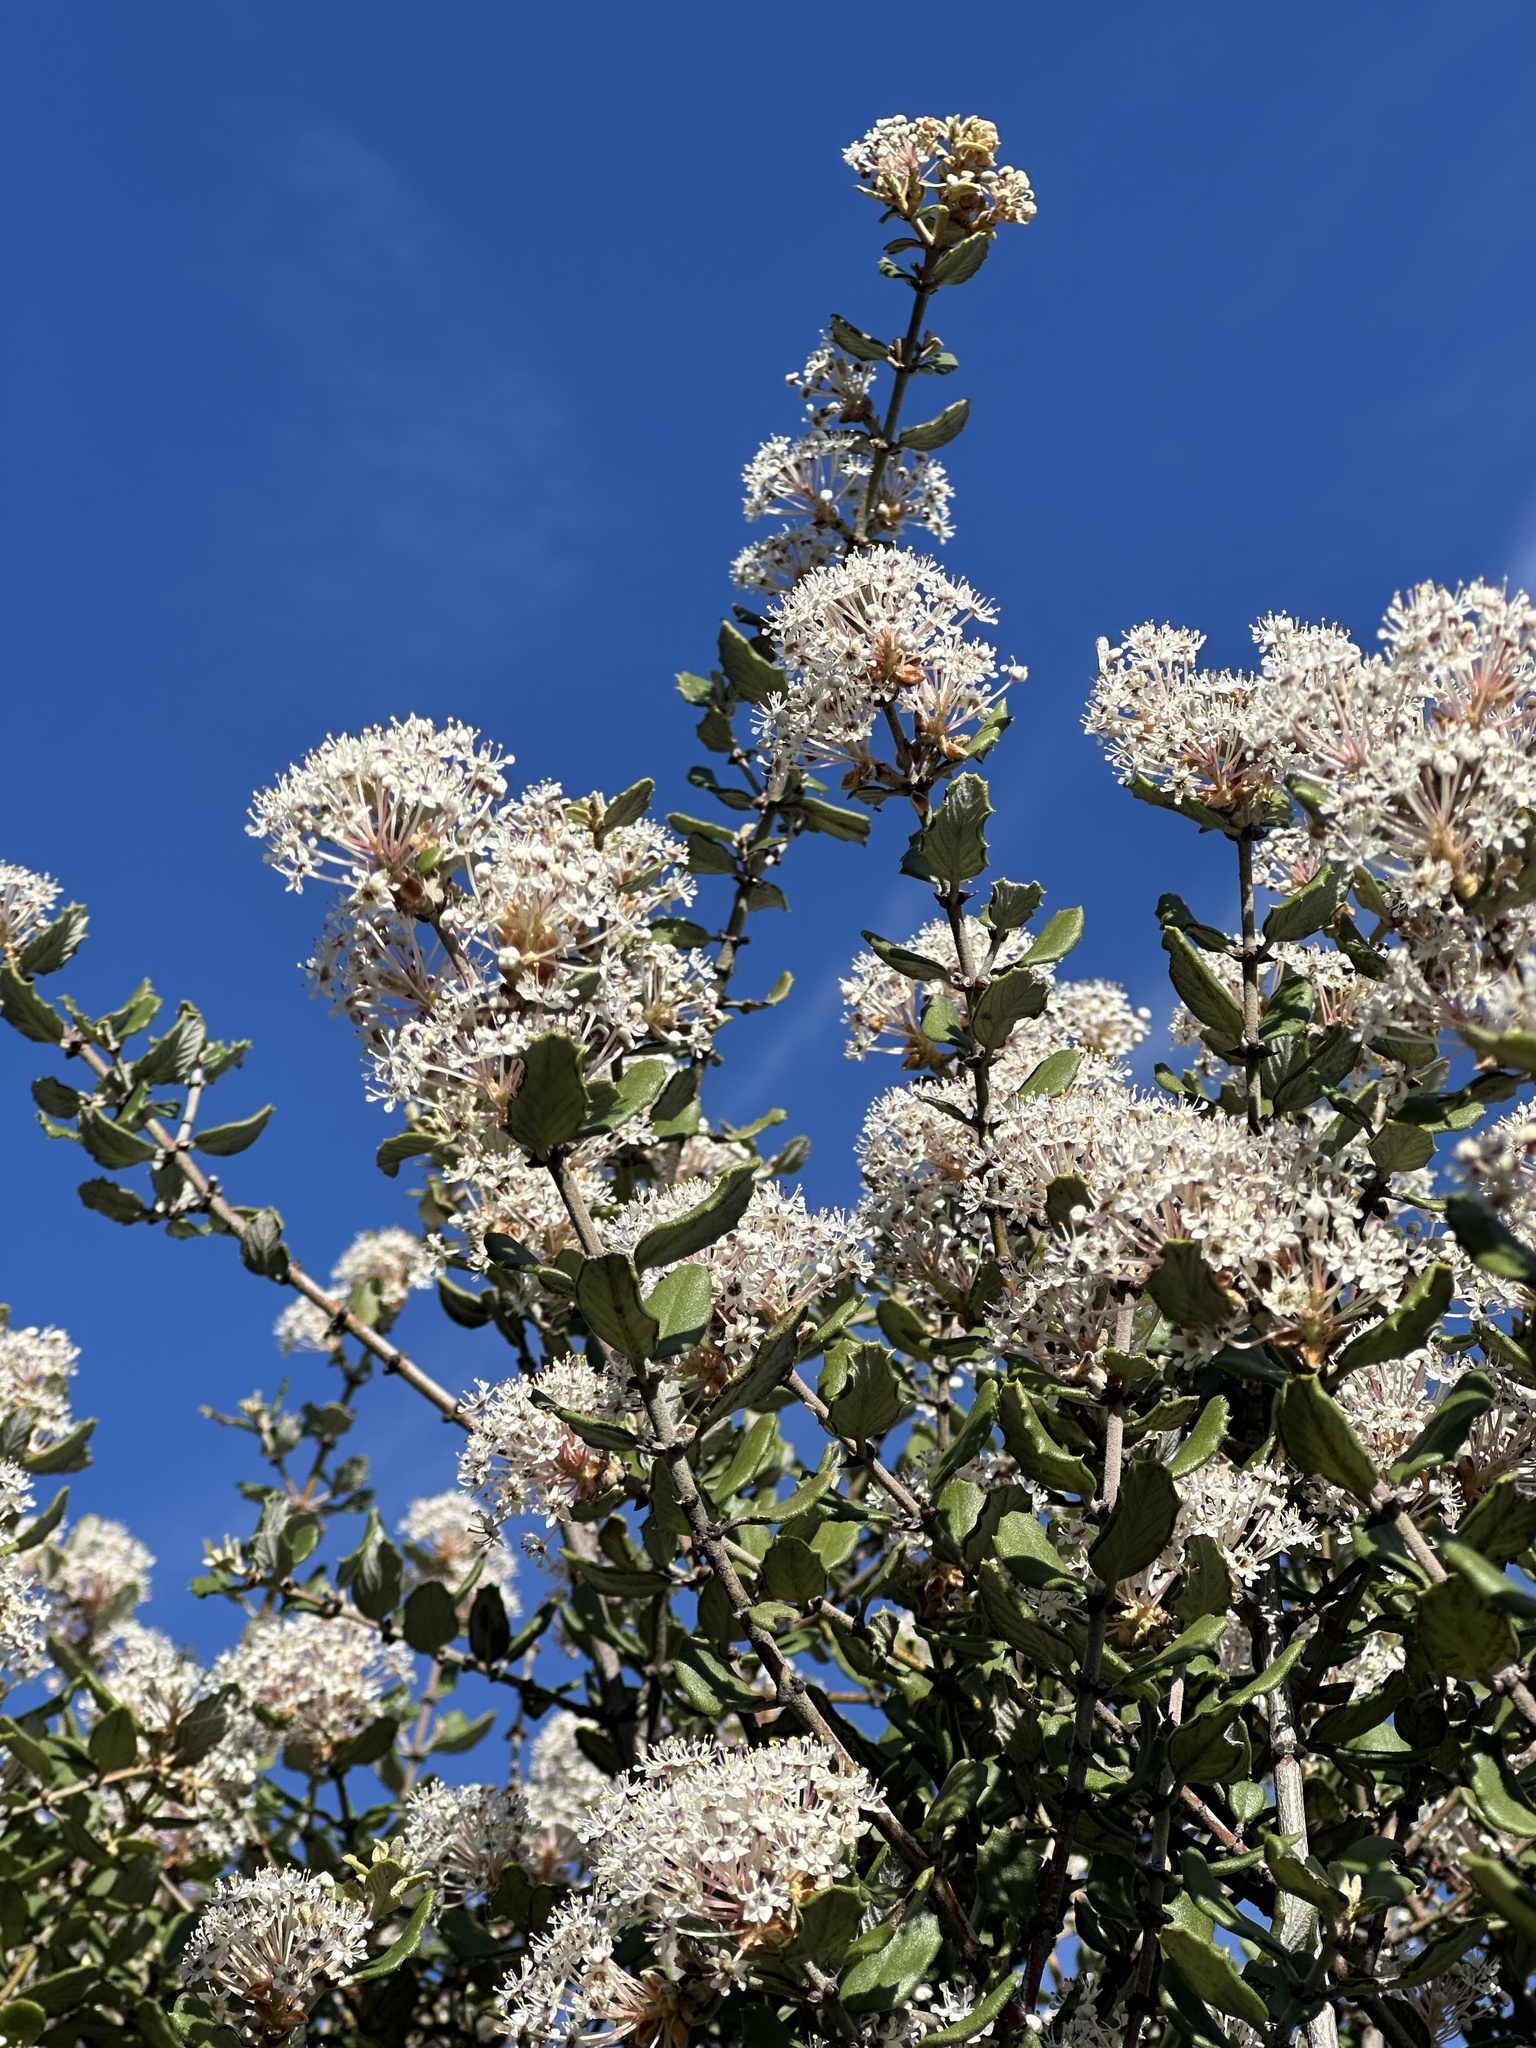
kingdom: Plantae
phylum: Tracheophyta
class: Magnoliopsida
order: Rosales
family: Rhamnaceae
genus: Ceanothus
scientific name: Ceanothus crassifolius
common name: Hoaryleaf ceanothus
